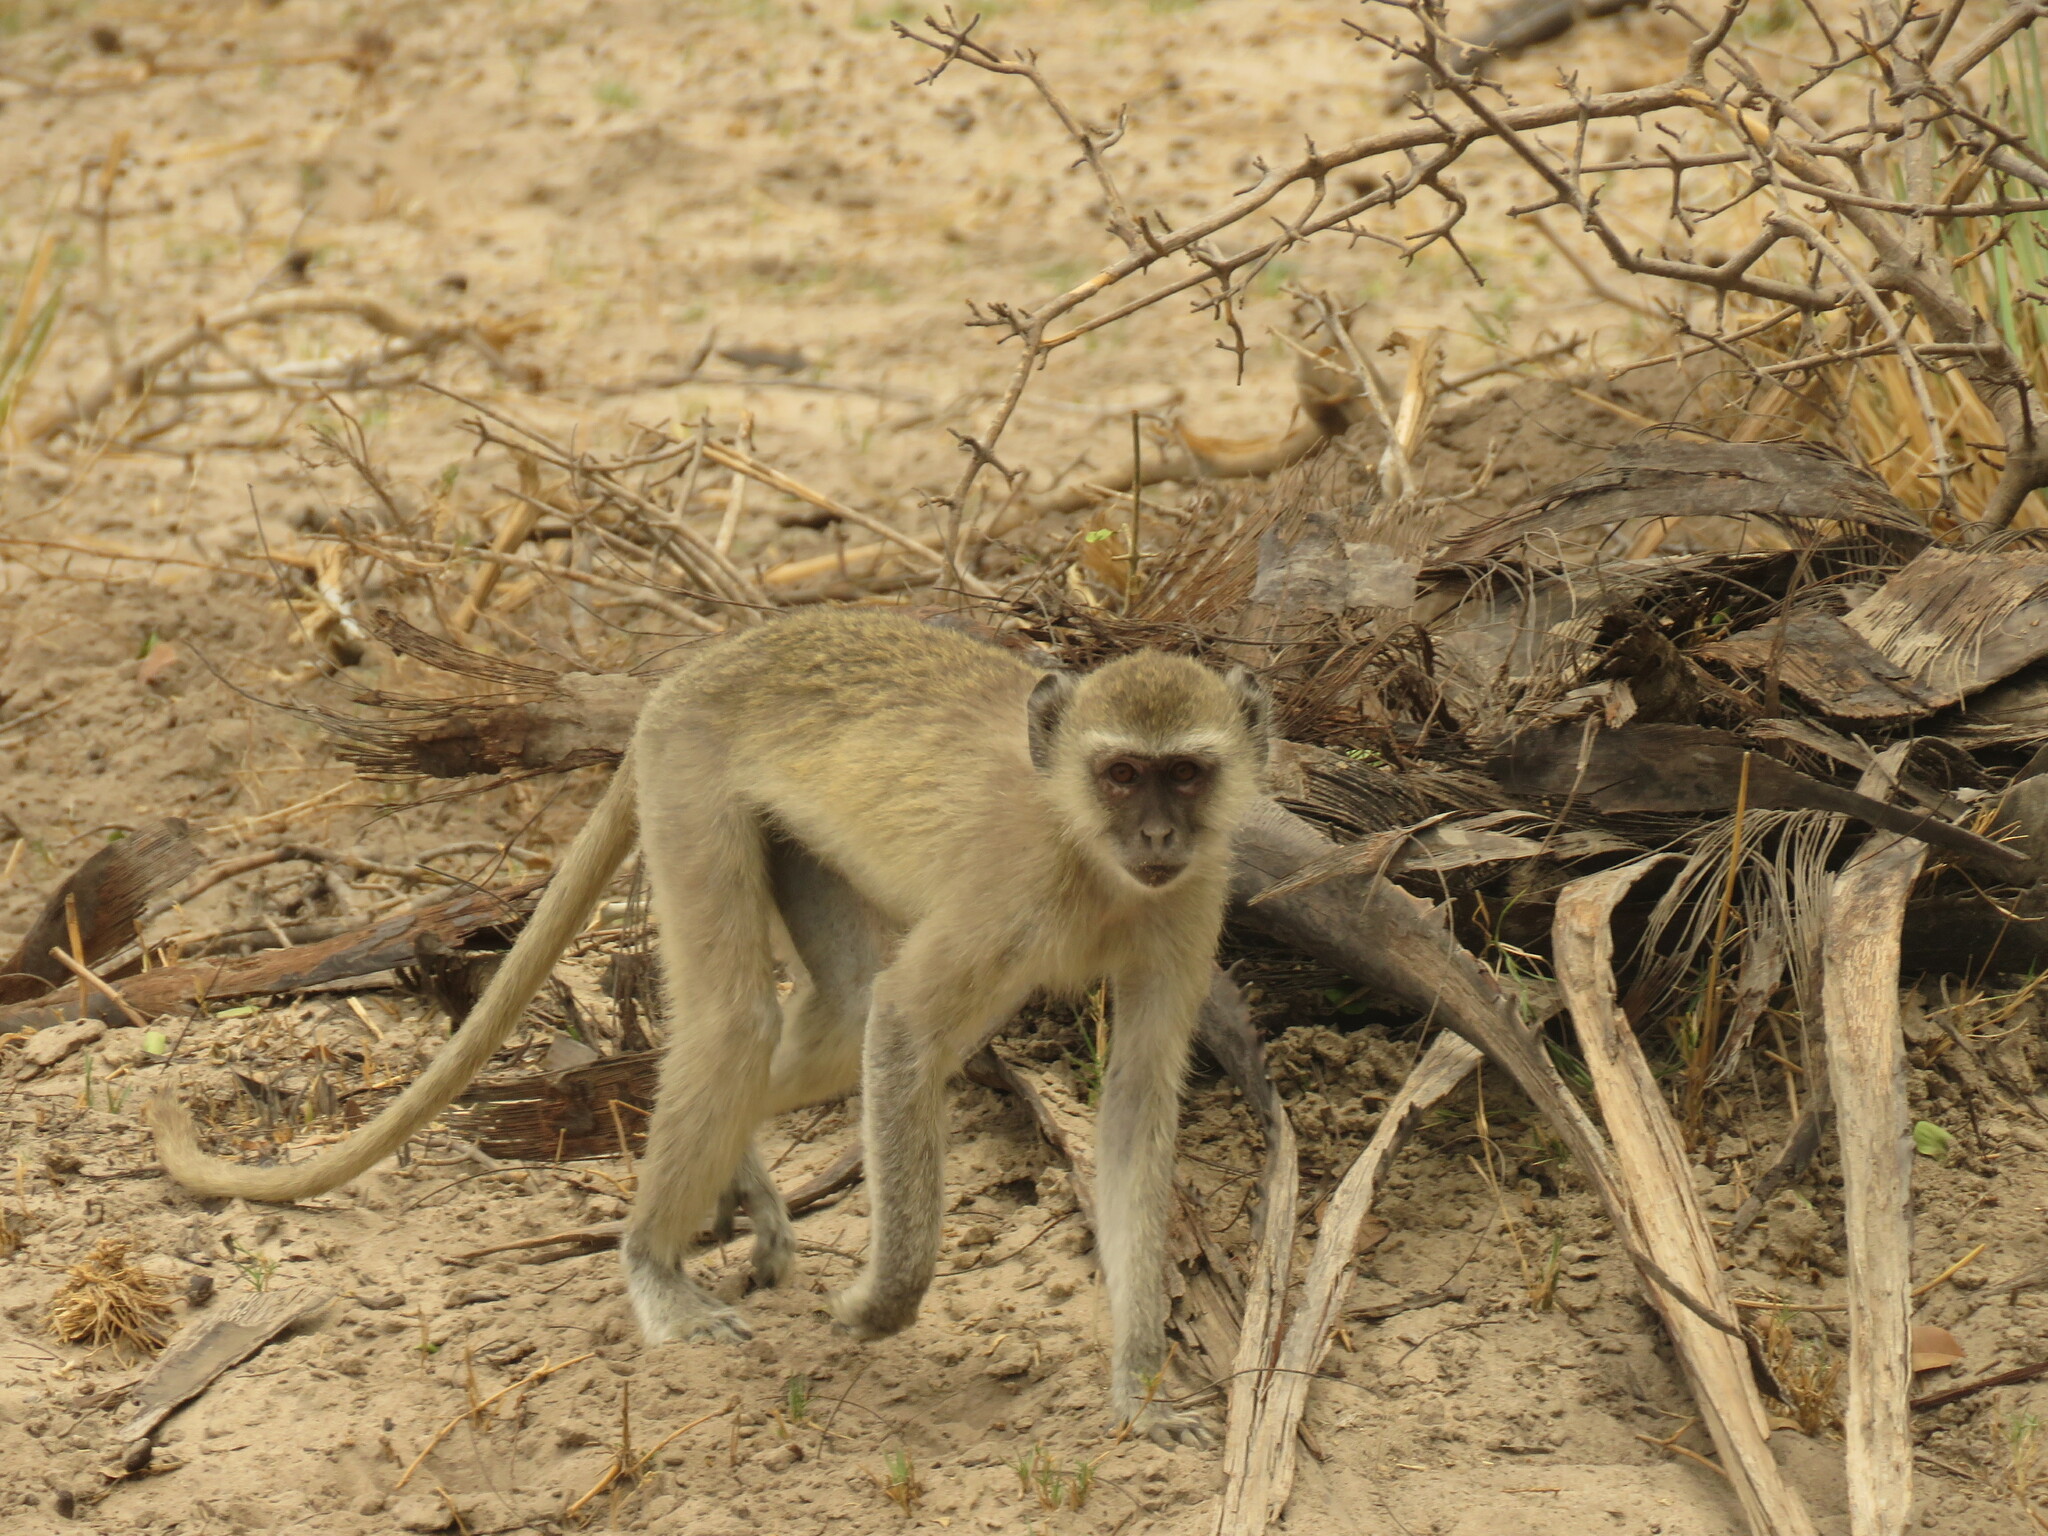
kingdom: Animalia
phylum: Chordata
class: Mammalia
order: Primates
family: Cercopithecidae
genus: Chlorocebus
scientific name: Chlorocebus cynosuros
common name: Malbrouck
